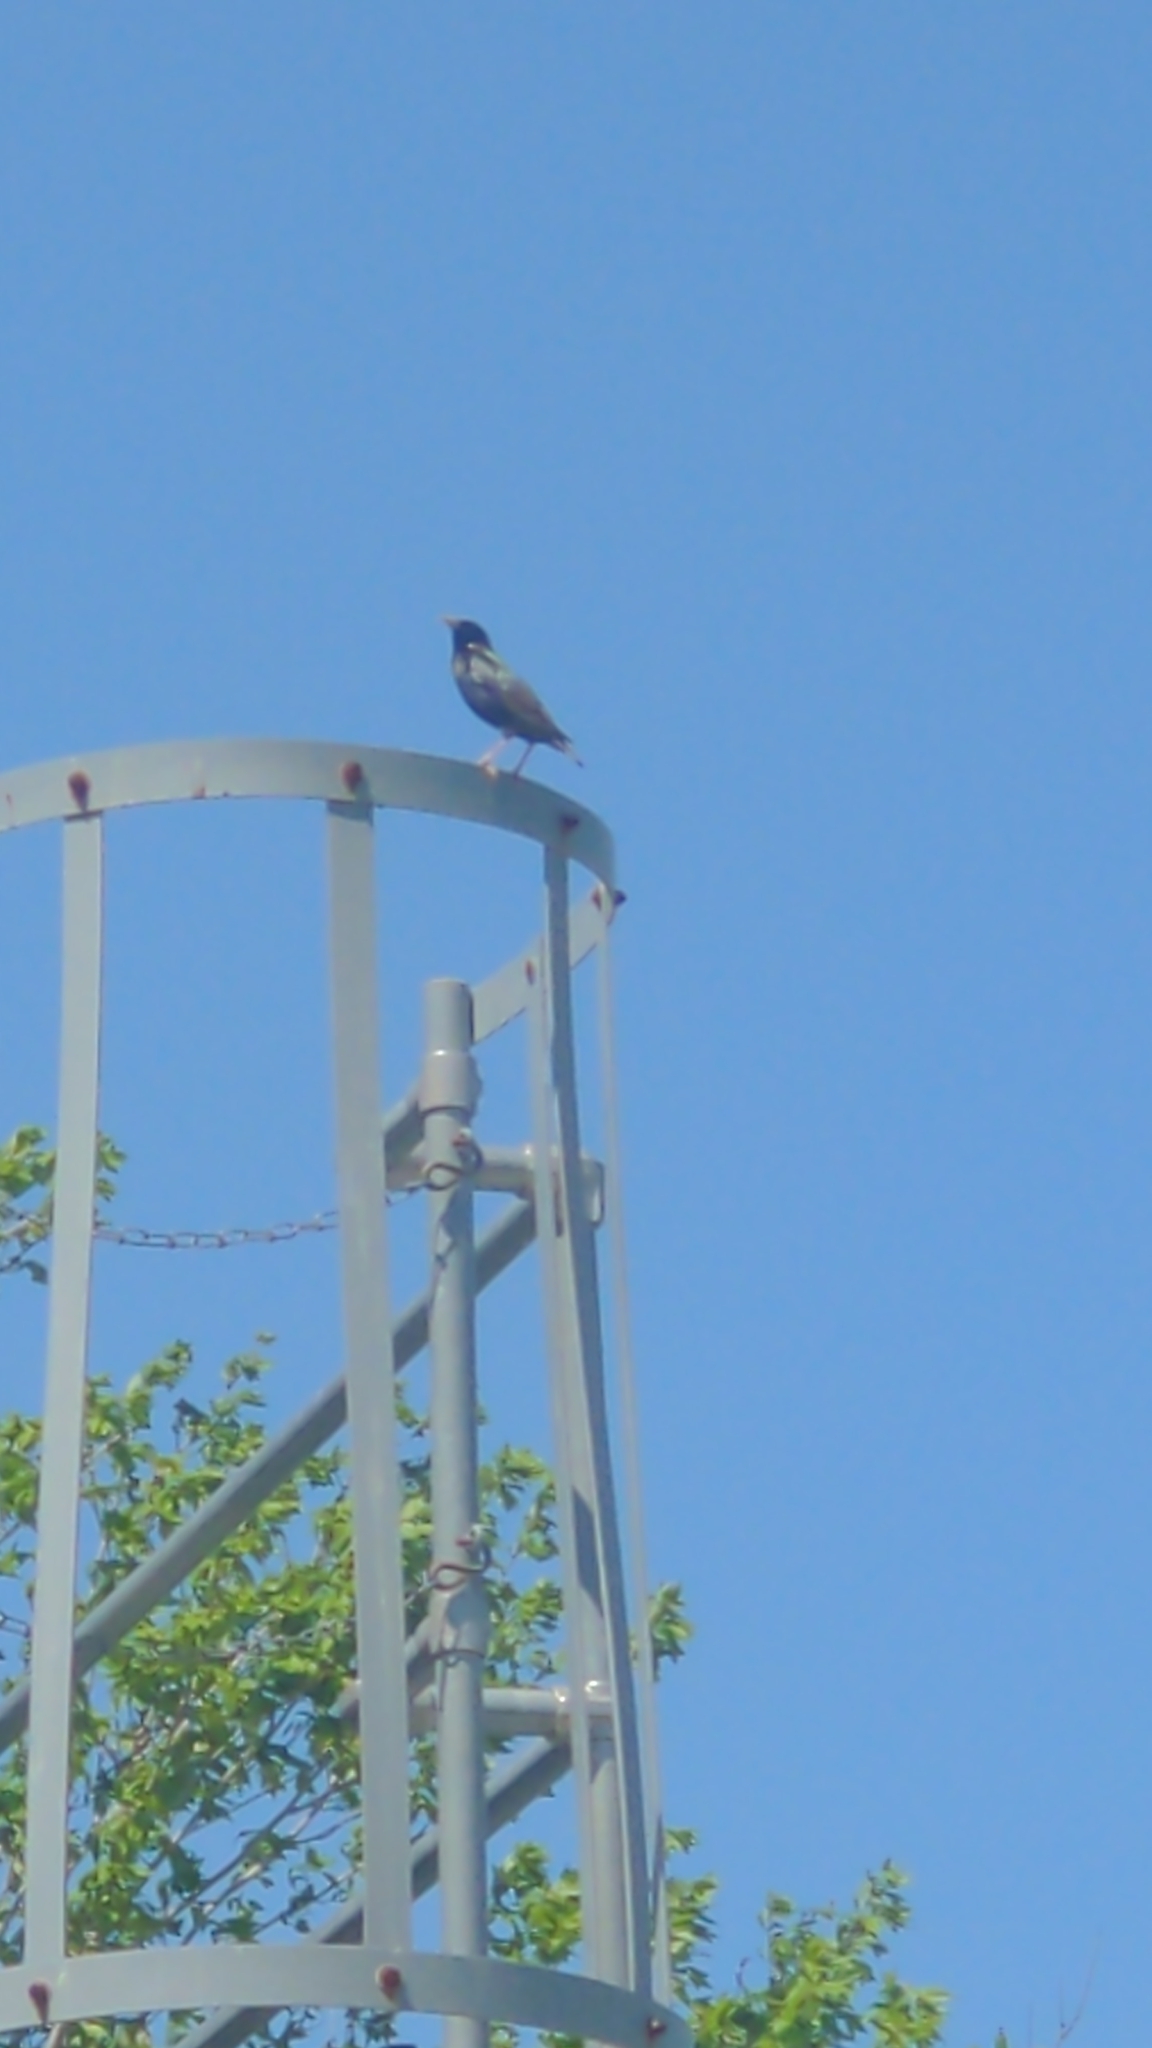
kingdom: Animalia
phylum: Chordata
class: Aves
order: Passeriformes
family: Sturnidae
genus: Sturnus
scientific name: Sturnus vulgaris
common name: Common starling
